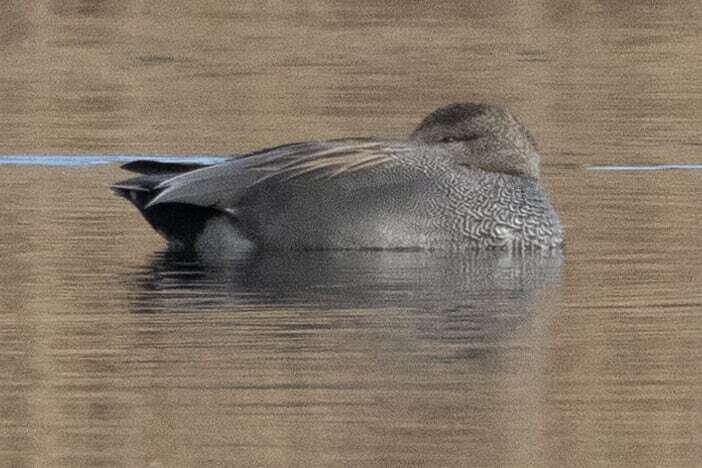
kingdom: Animalia
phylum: Chordata
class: Aves
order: Anseriformes
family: Anatidae
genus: Mareca
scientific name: Mareca strepera
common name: Gadwall
